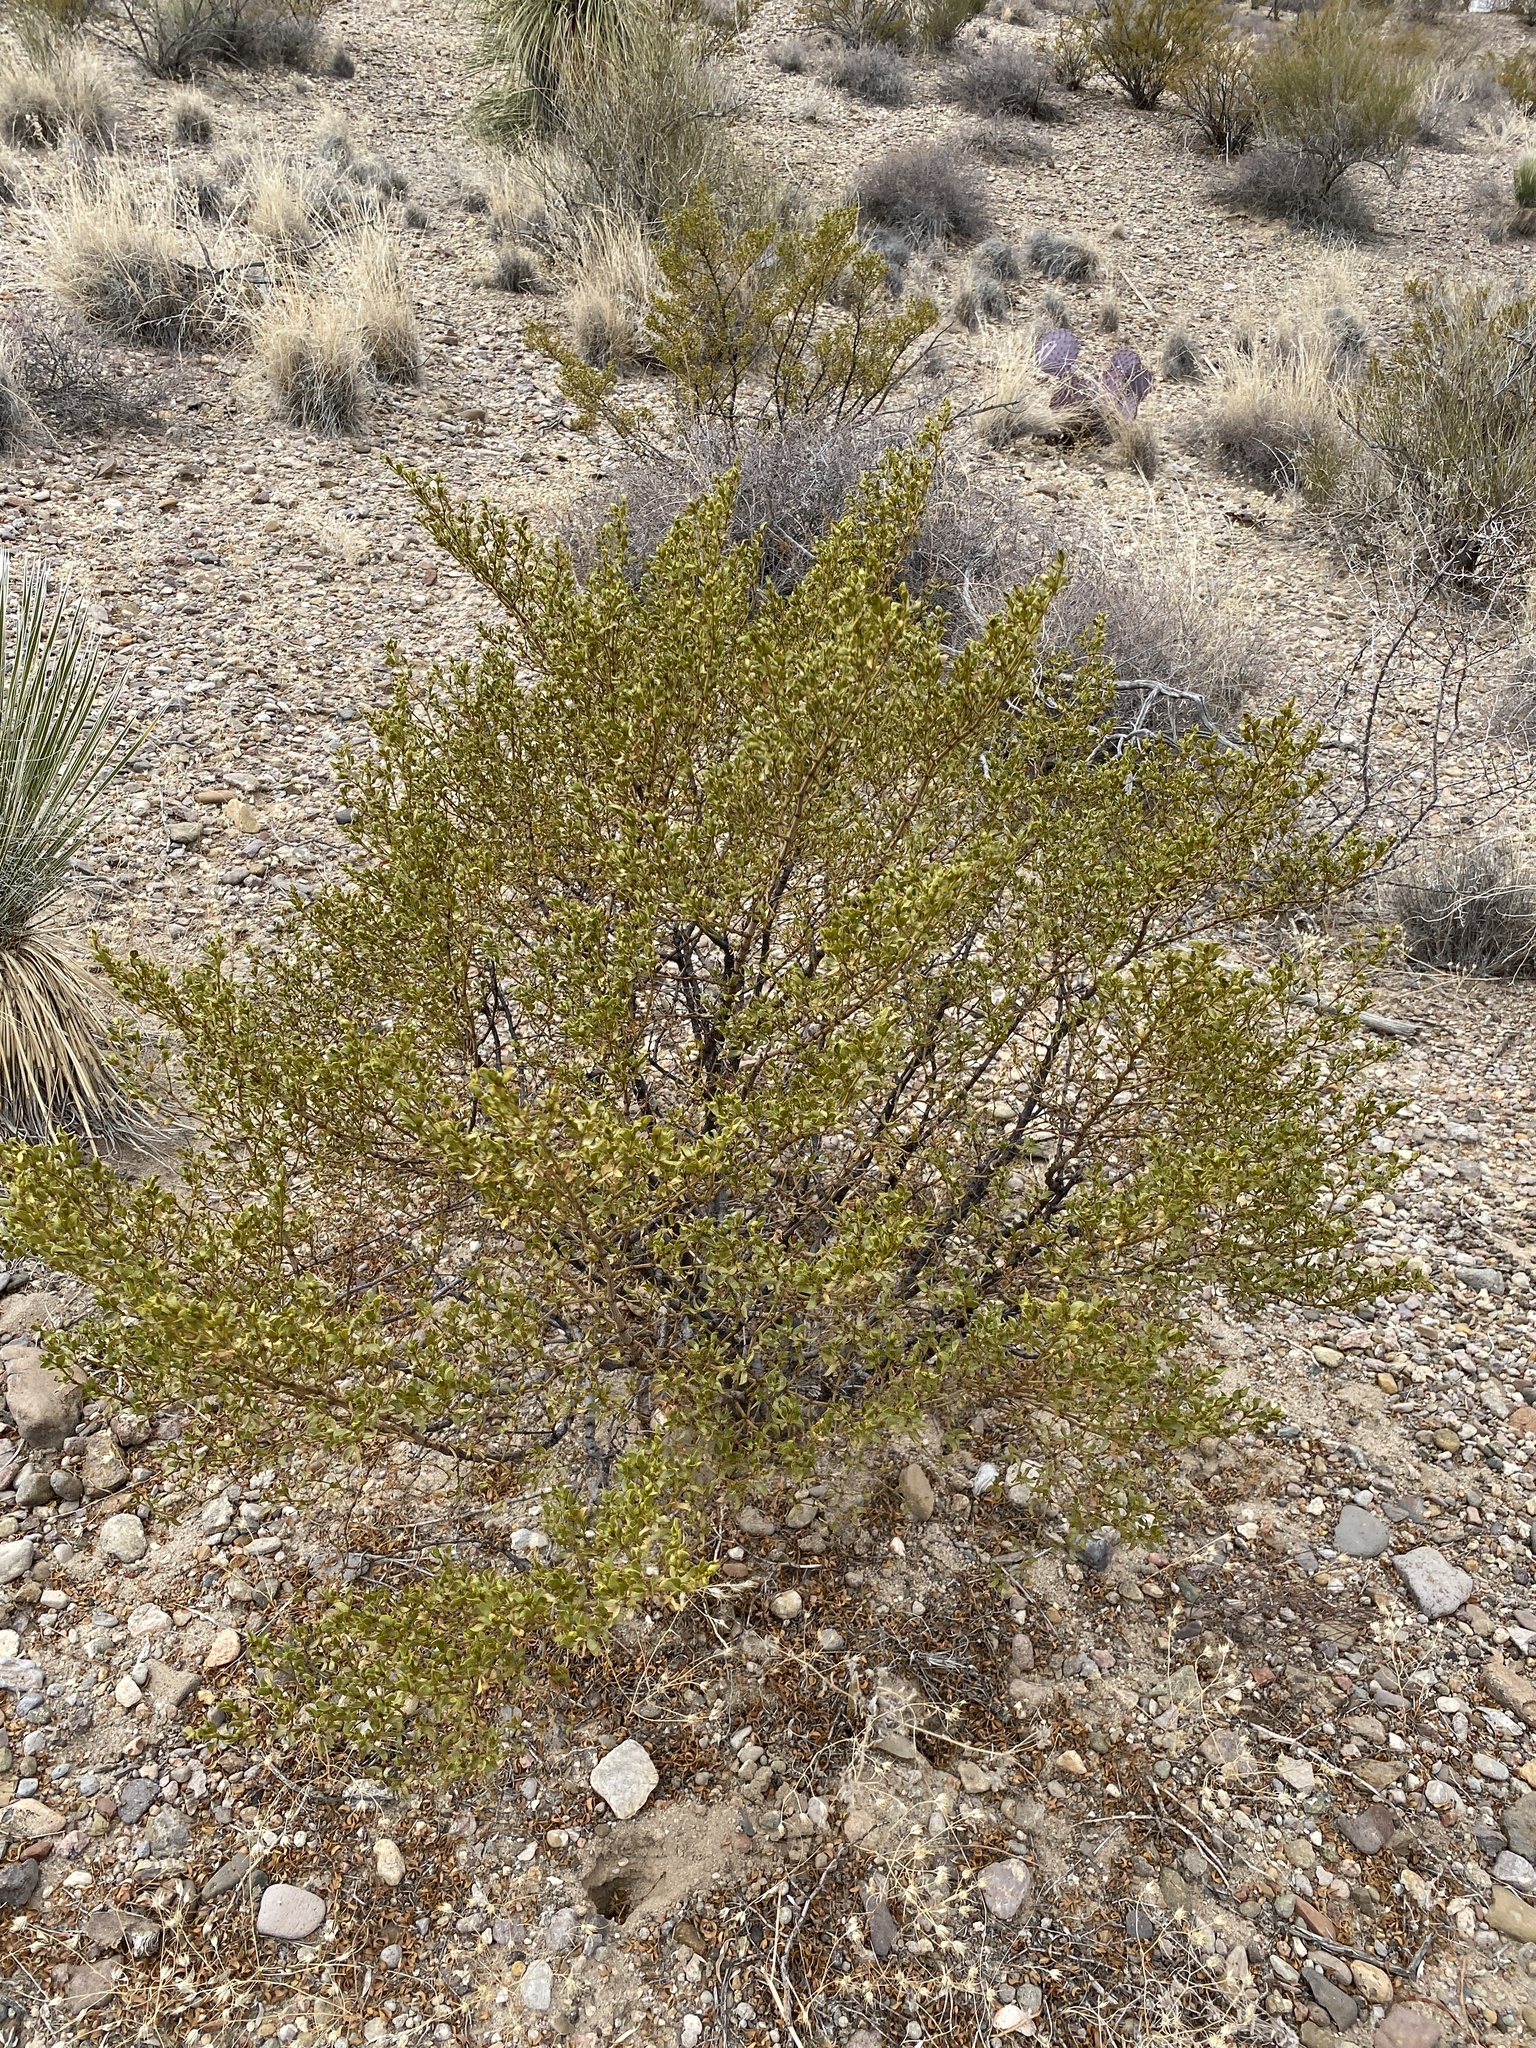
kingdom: Plantae
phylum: Tracheophyta
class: Magnoliopsida
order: Zygophyllales
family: Zygophyllaceae
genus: Larrea
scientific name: Larrea tridentata
